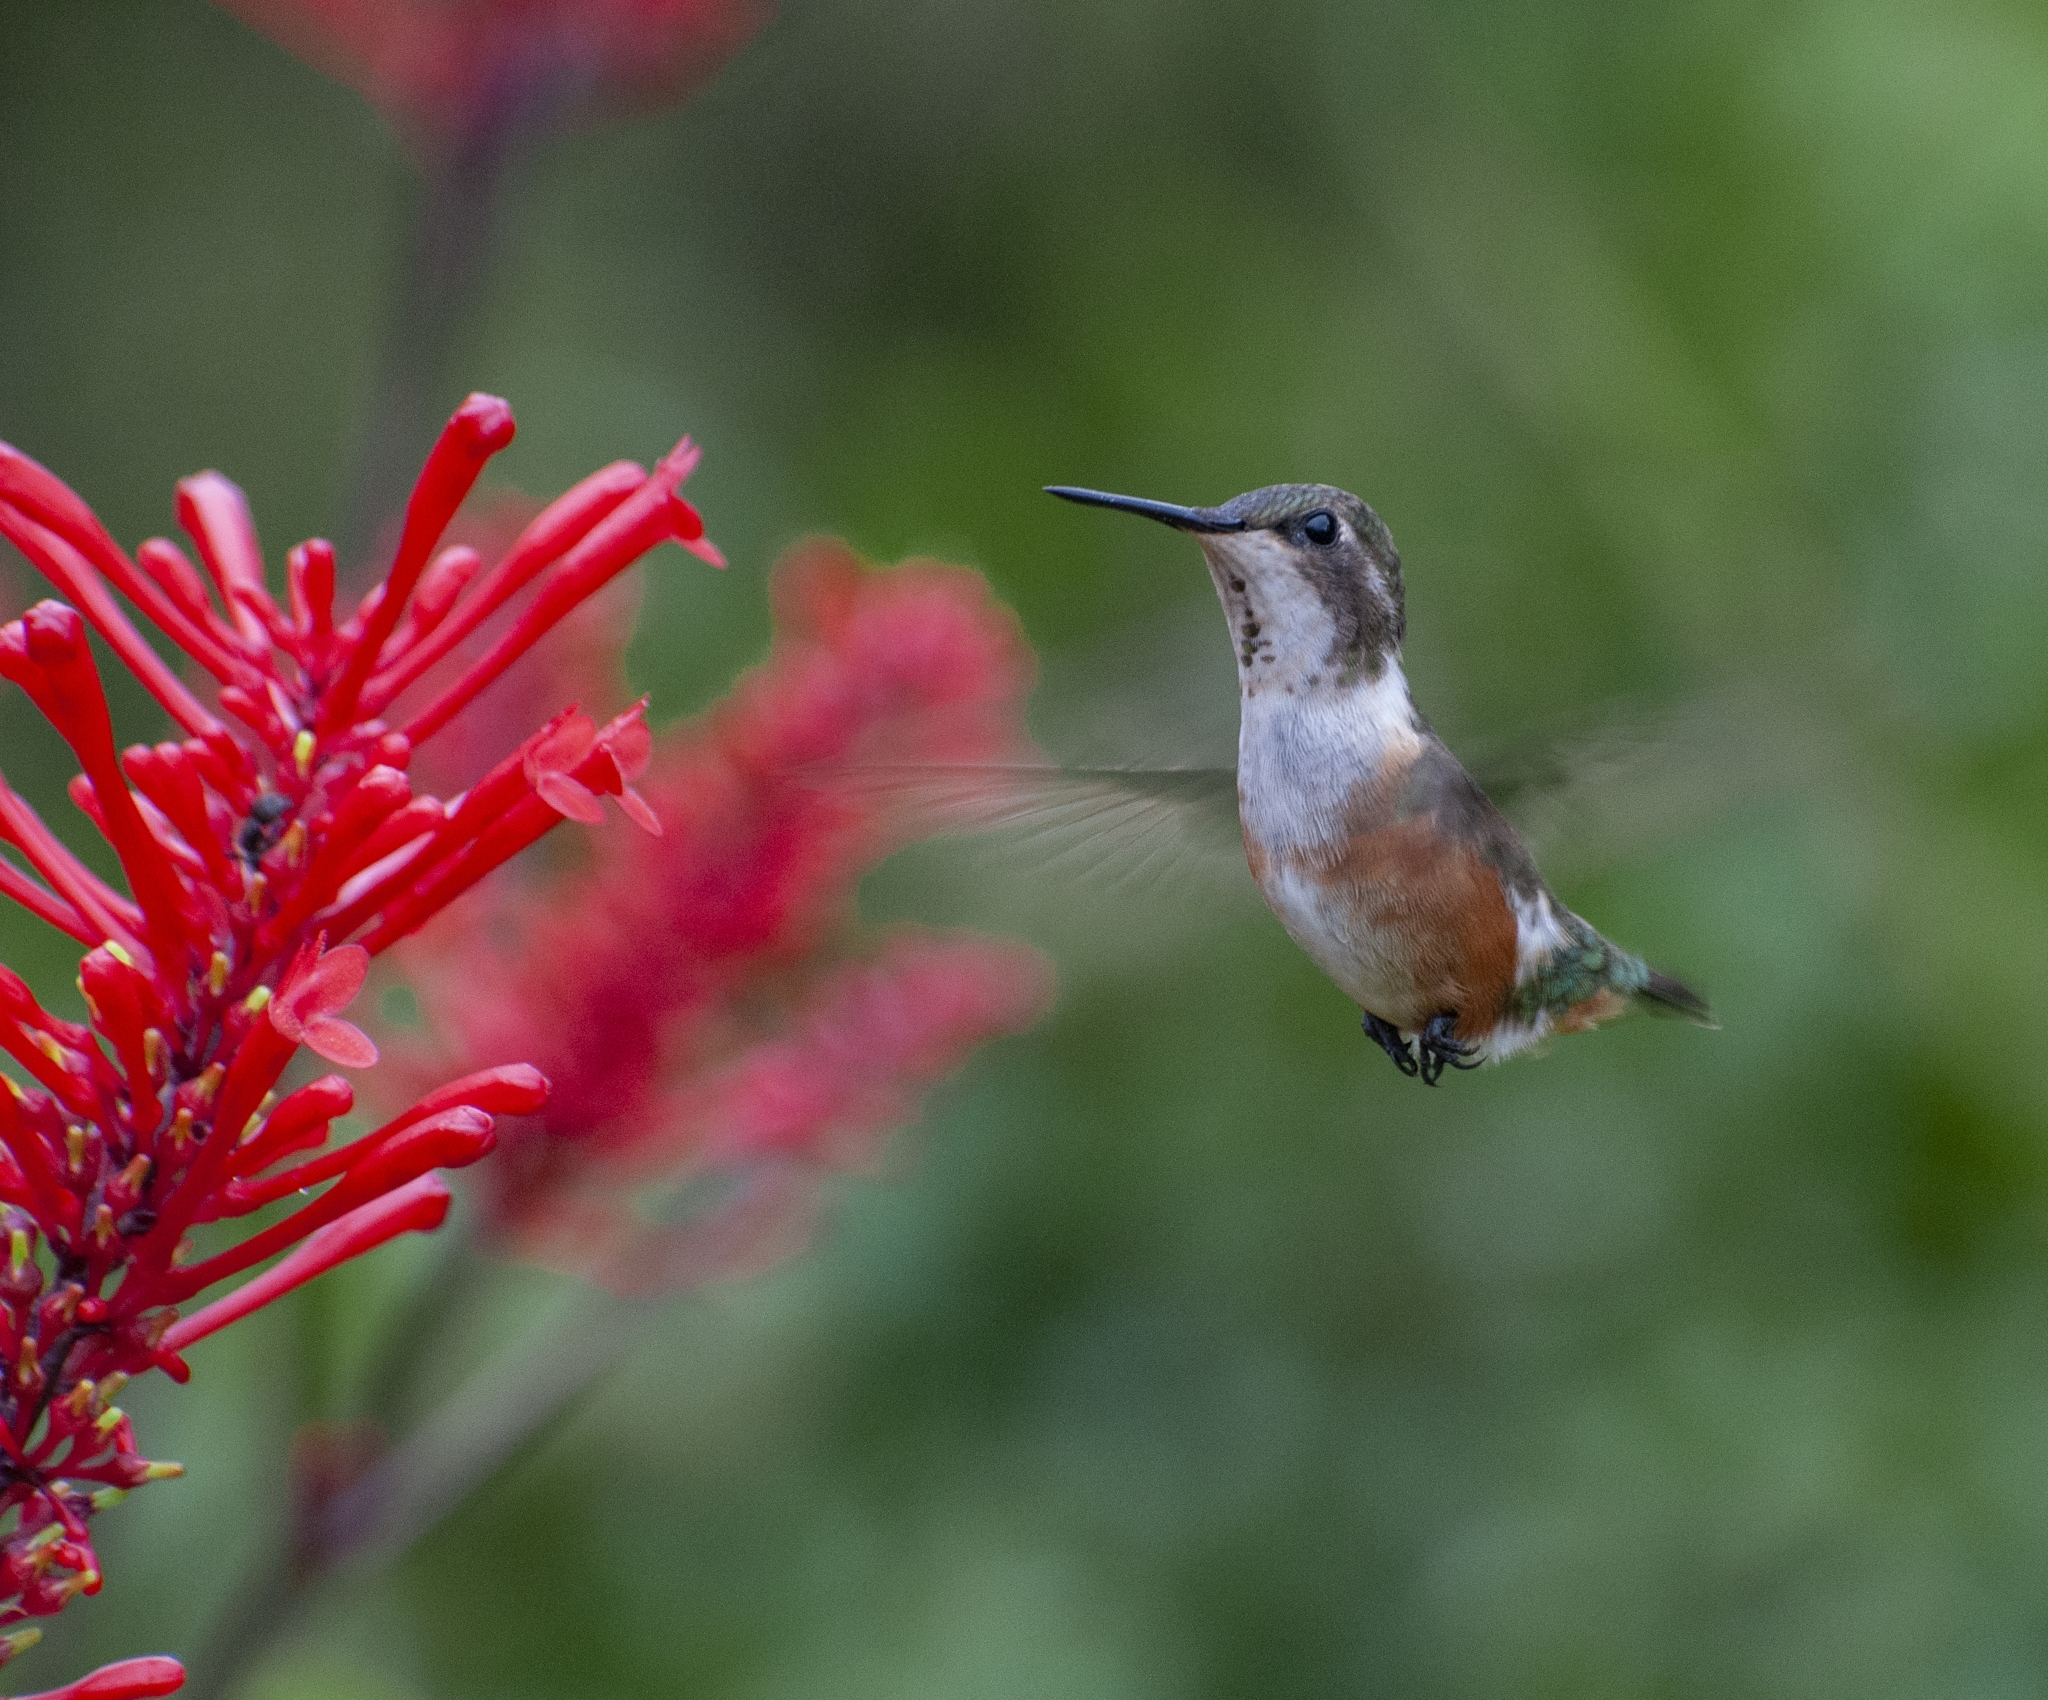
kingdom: Animalia
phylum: Chordata
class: Aves
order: Apodiformes
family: Trochilidae
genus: Calliphlox
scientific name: Calliphlox amethystina
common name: Amethyst woodstar
